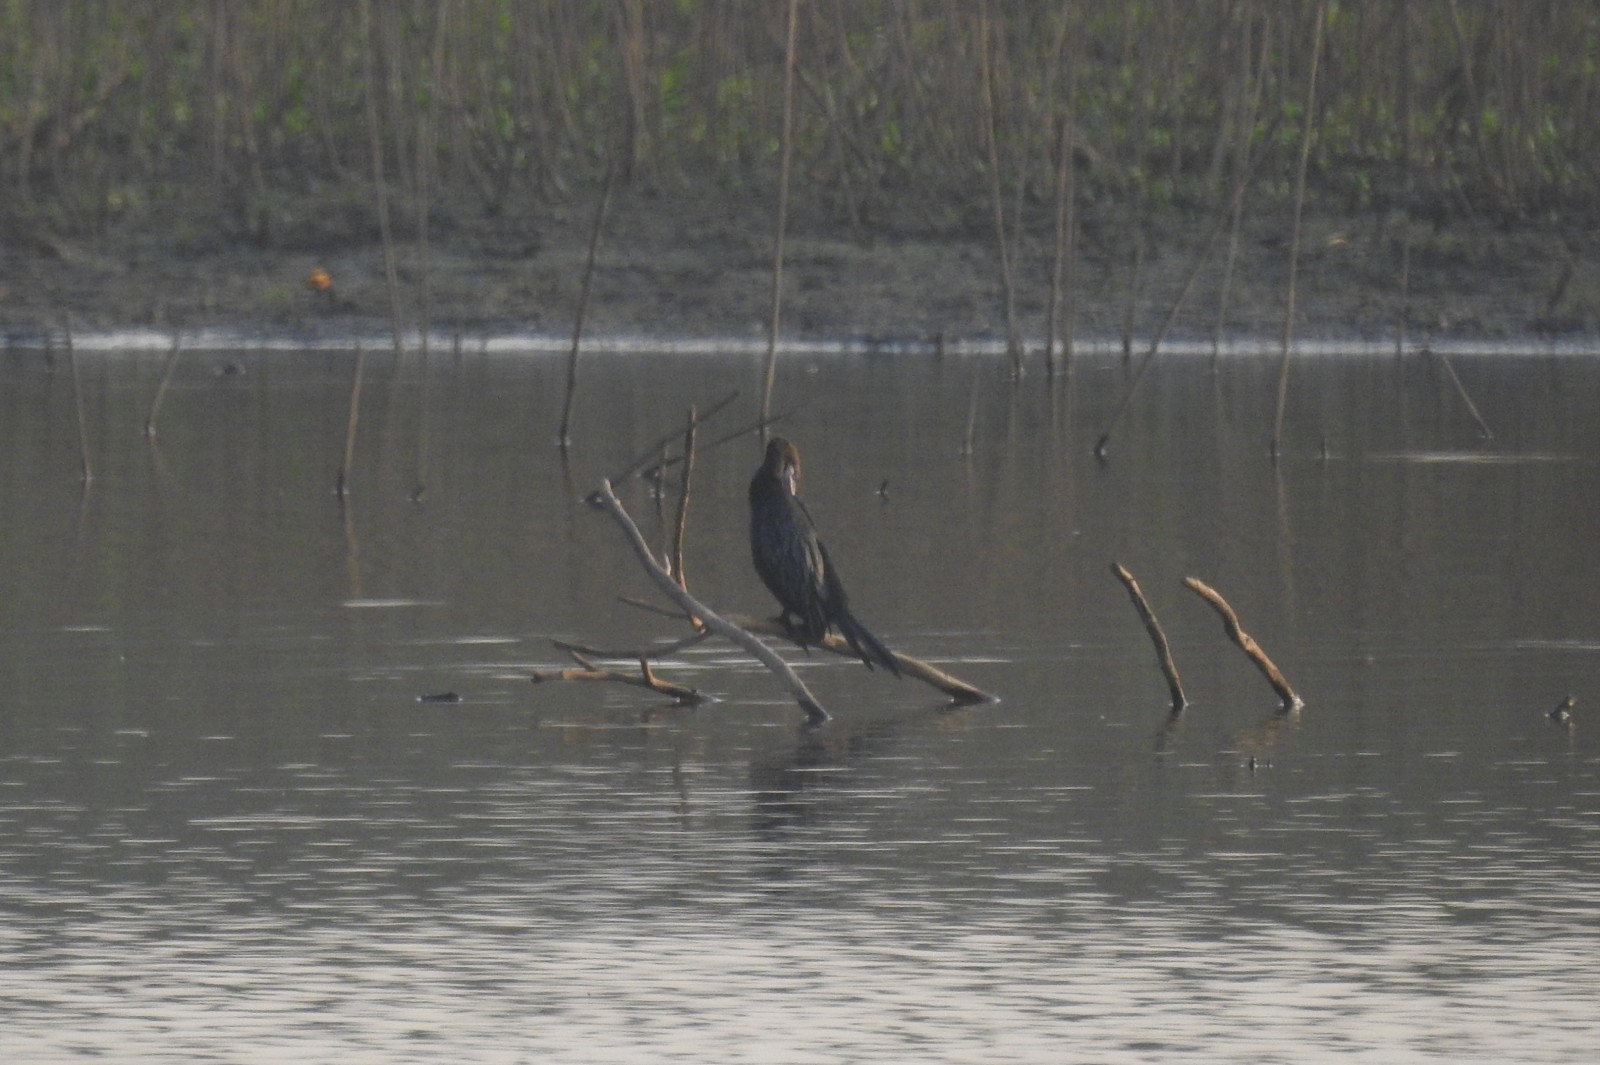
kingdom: Animalia
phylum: Chordata
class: Aves
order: Suliformes
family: Phalacrocoracidae
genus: Microcarbo
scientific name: Microcarbo niger
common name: Little cormorant
